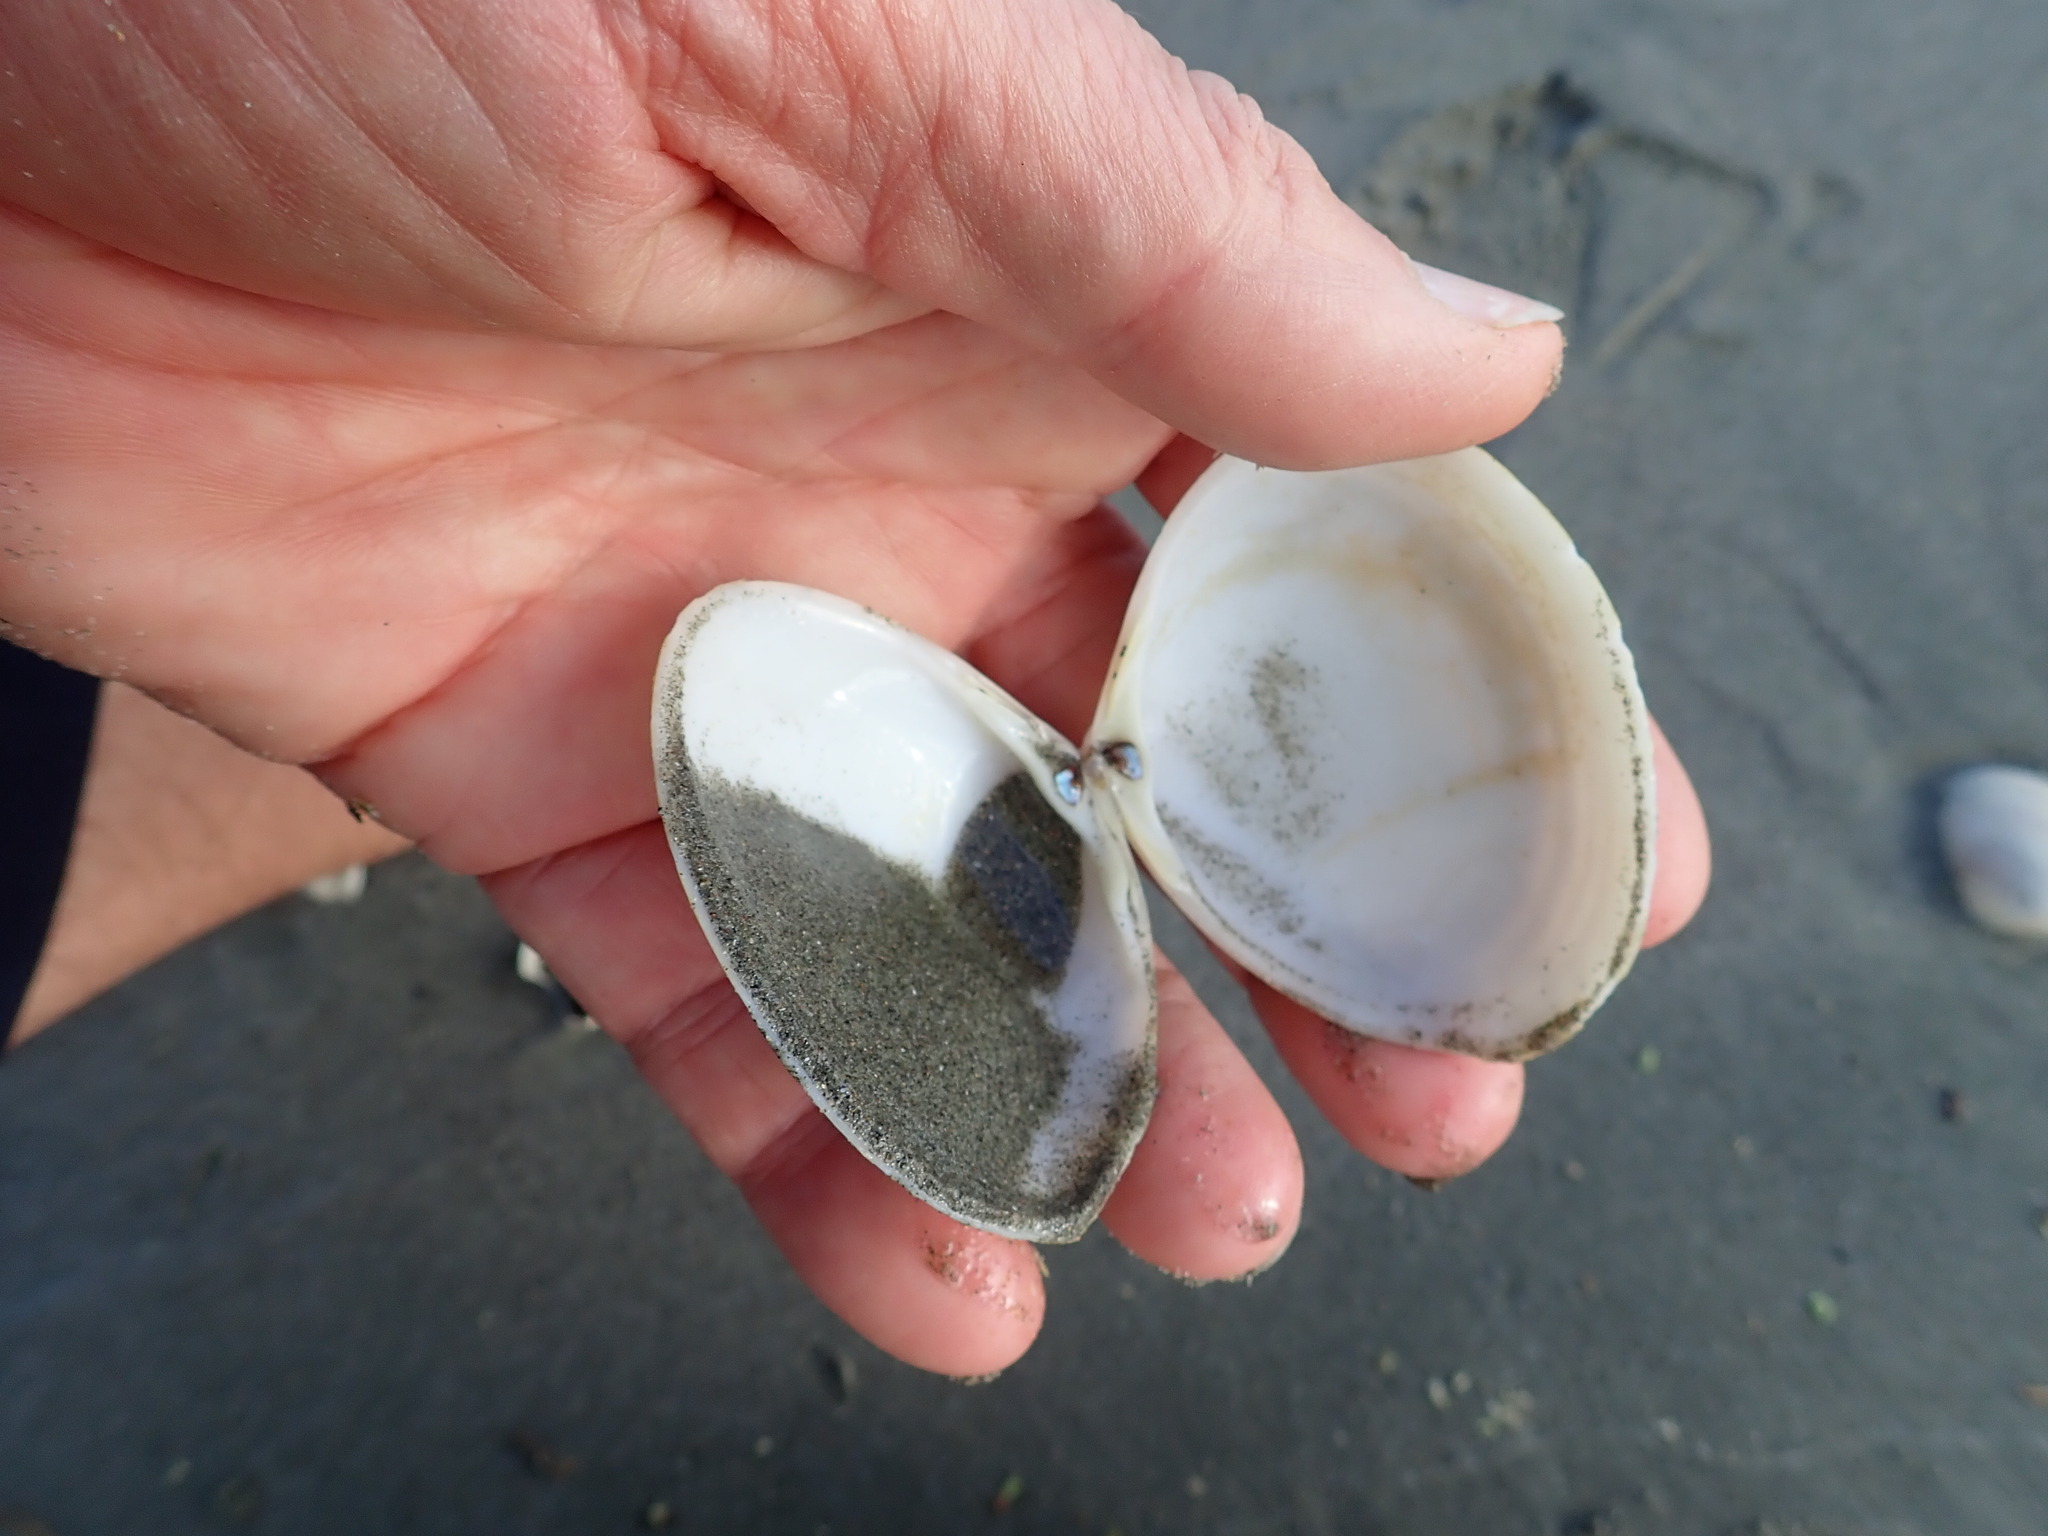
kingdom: Animalia
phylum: Mollusca
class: Bivalvia
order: Venerida
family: Mactridae
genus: Spisula
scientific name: Spisula discors
